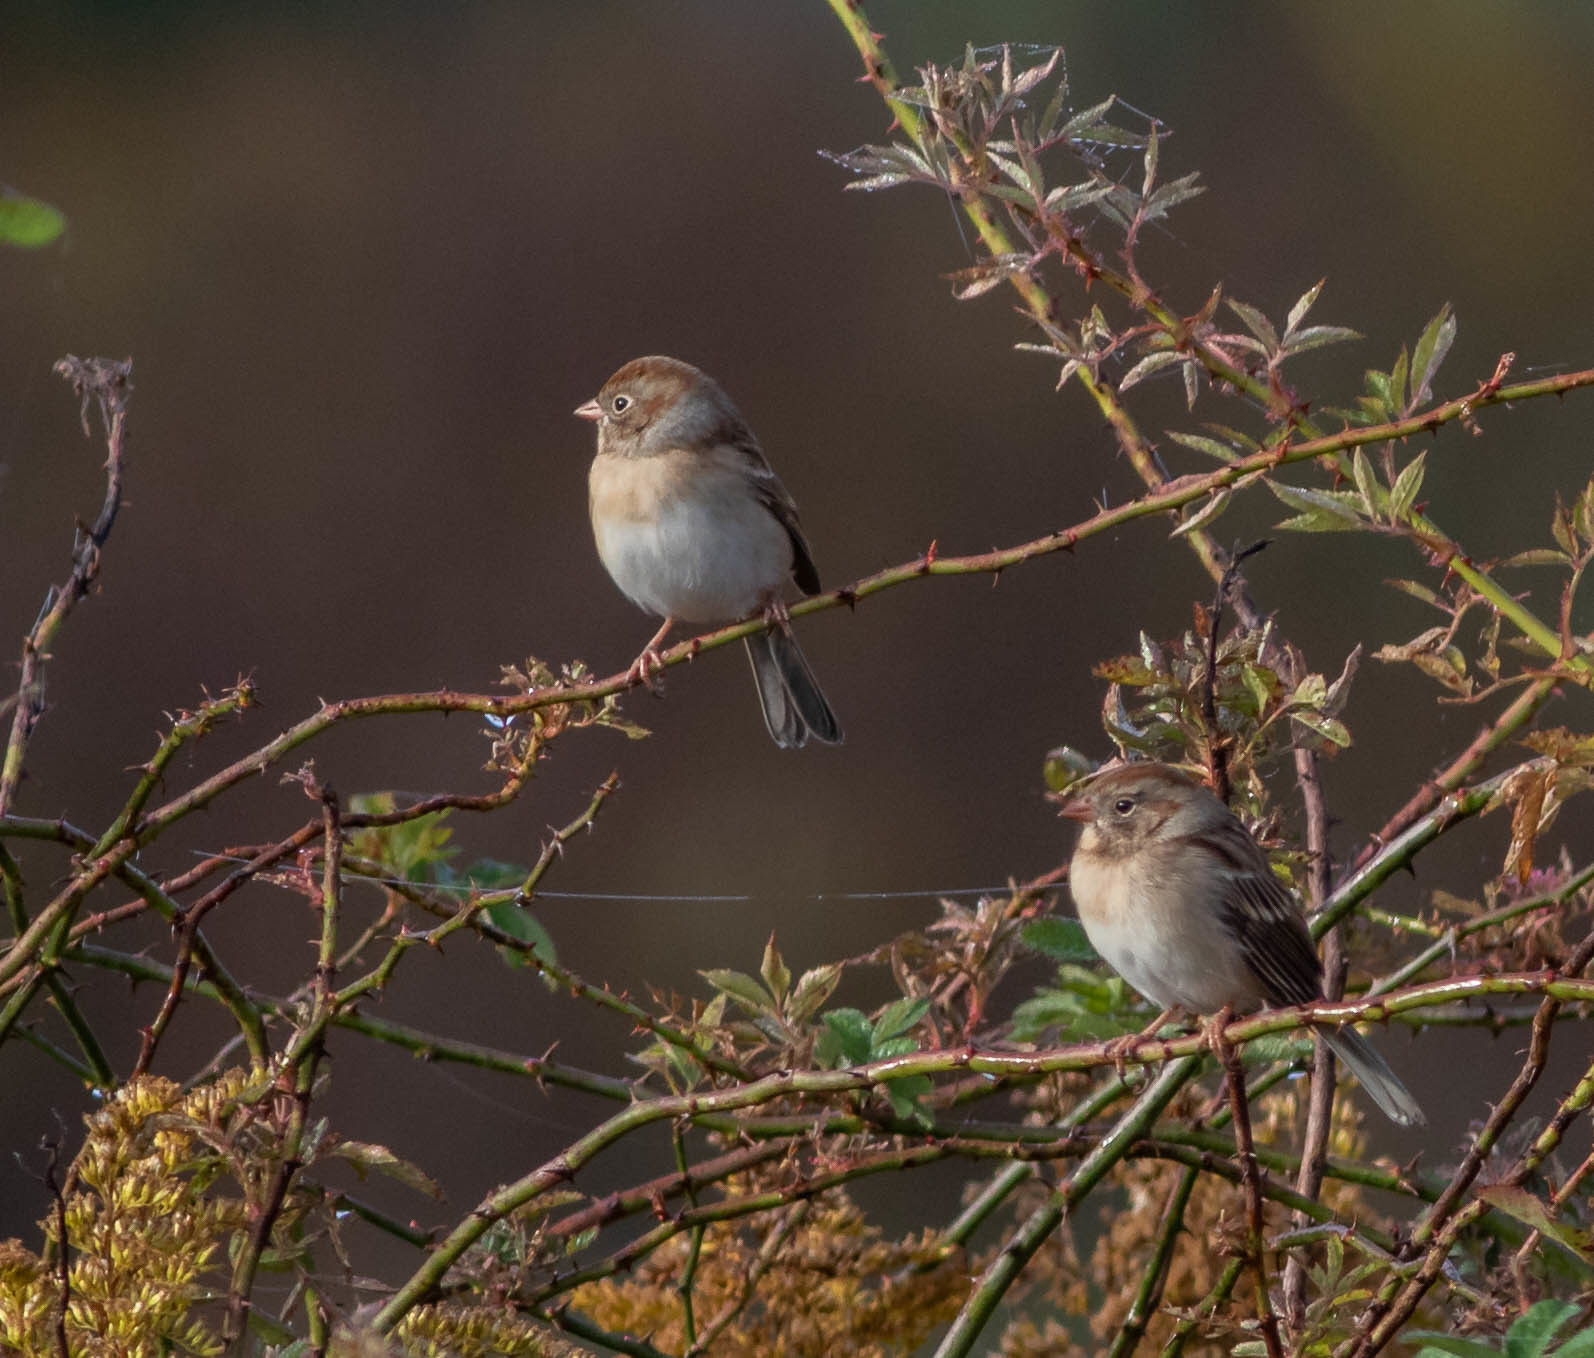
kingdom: Animalia
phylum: Chordata
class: Aves
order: Passeriformes
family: Passerellidae
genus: Spizella
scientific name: Spizella pusilla
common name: Field sparrow
